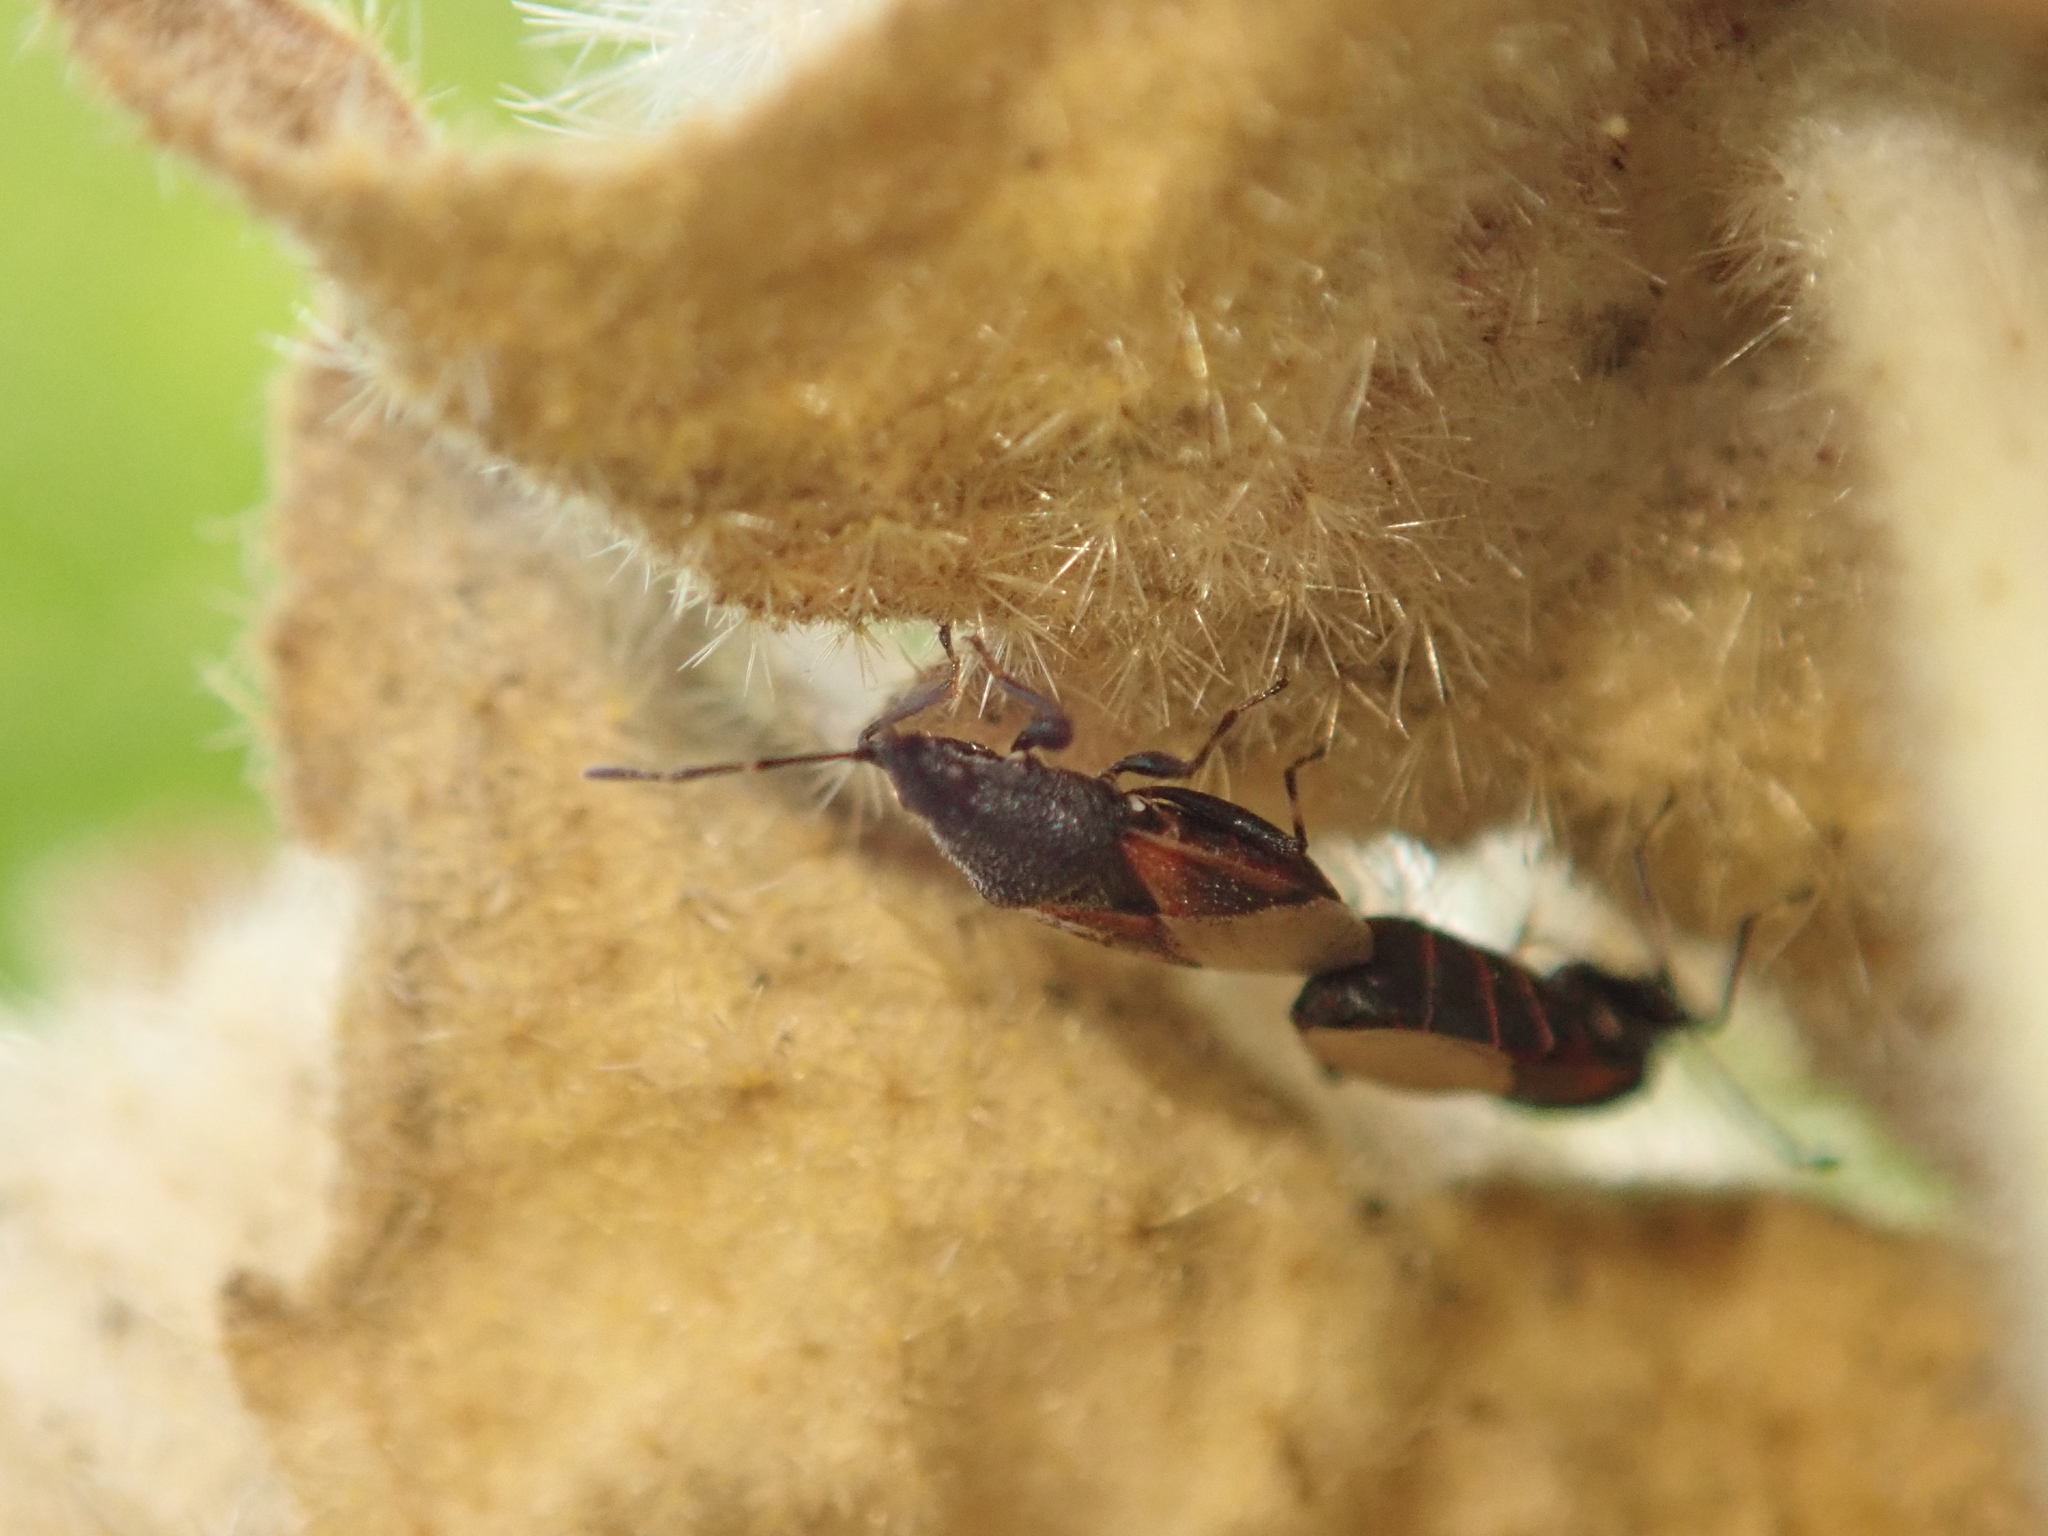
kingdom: Animalia
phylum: Arthropoda
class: Insecta
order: Hemiptera
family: Oxycarenidae
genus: Oxycarenus
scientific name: Oxycarenus lavaterae
